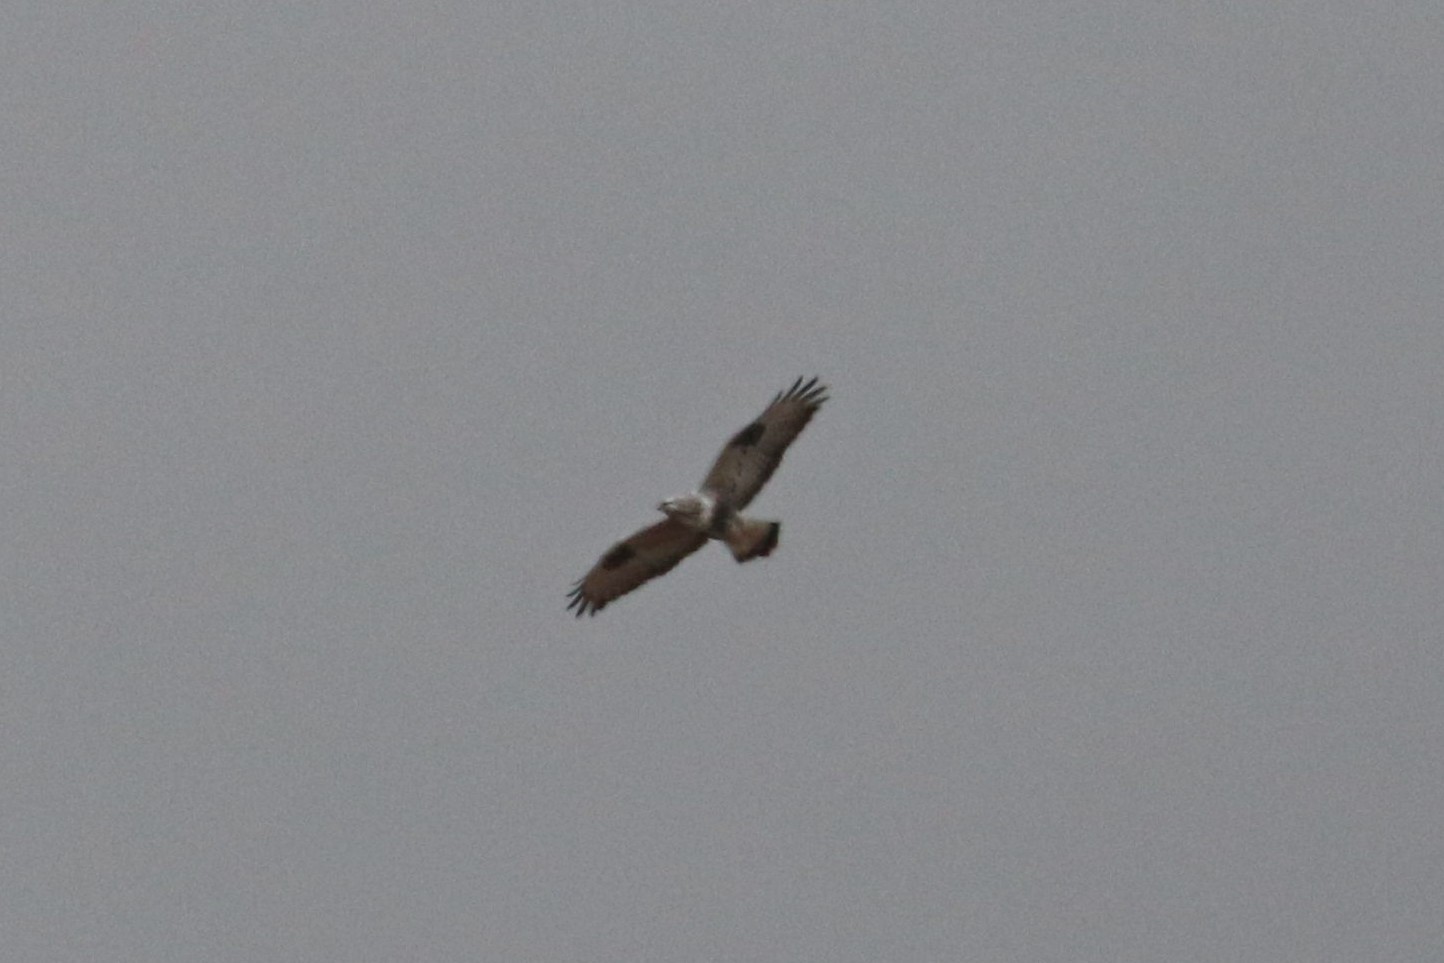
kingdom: Animalia
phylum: Chordata
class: Aves
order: Accipitriformes
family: Accipitridae
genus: Buteo
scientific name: Buteo lagopus
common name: Rough-legged buzzard
